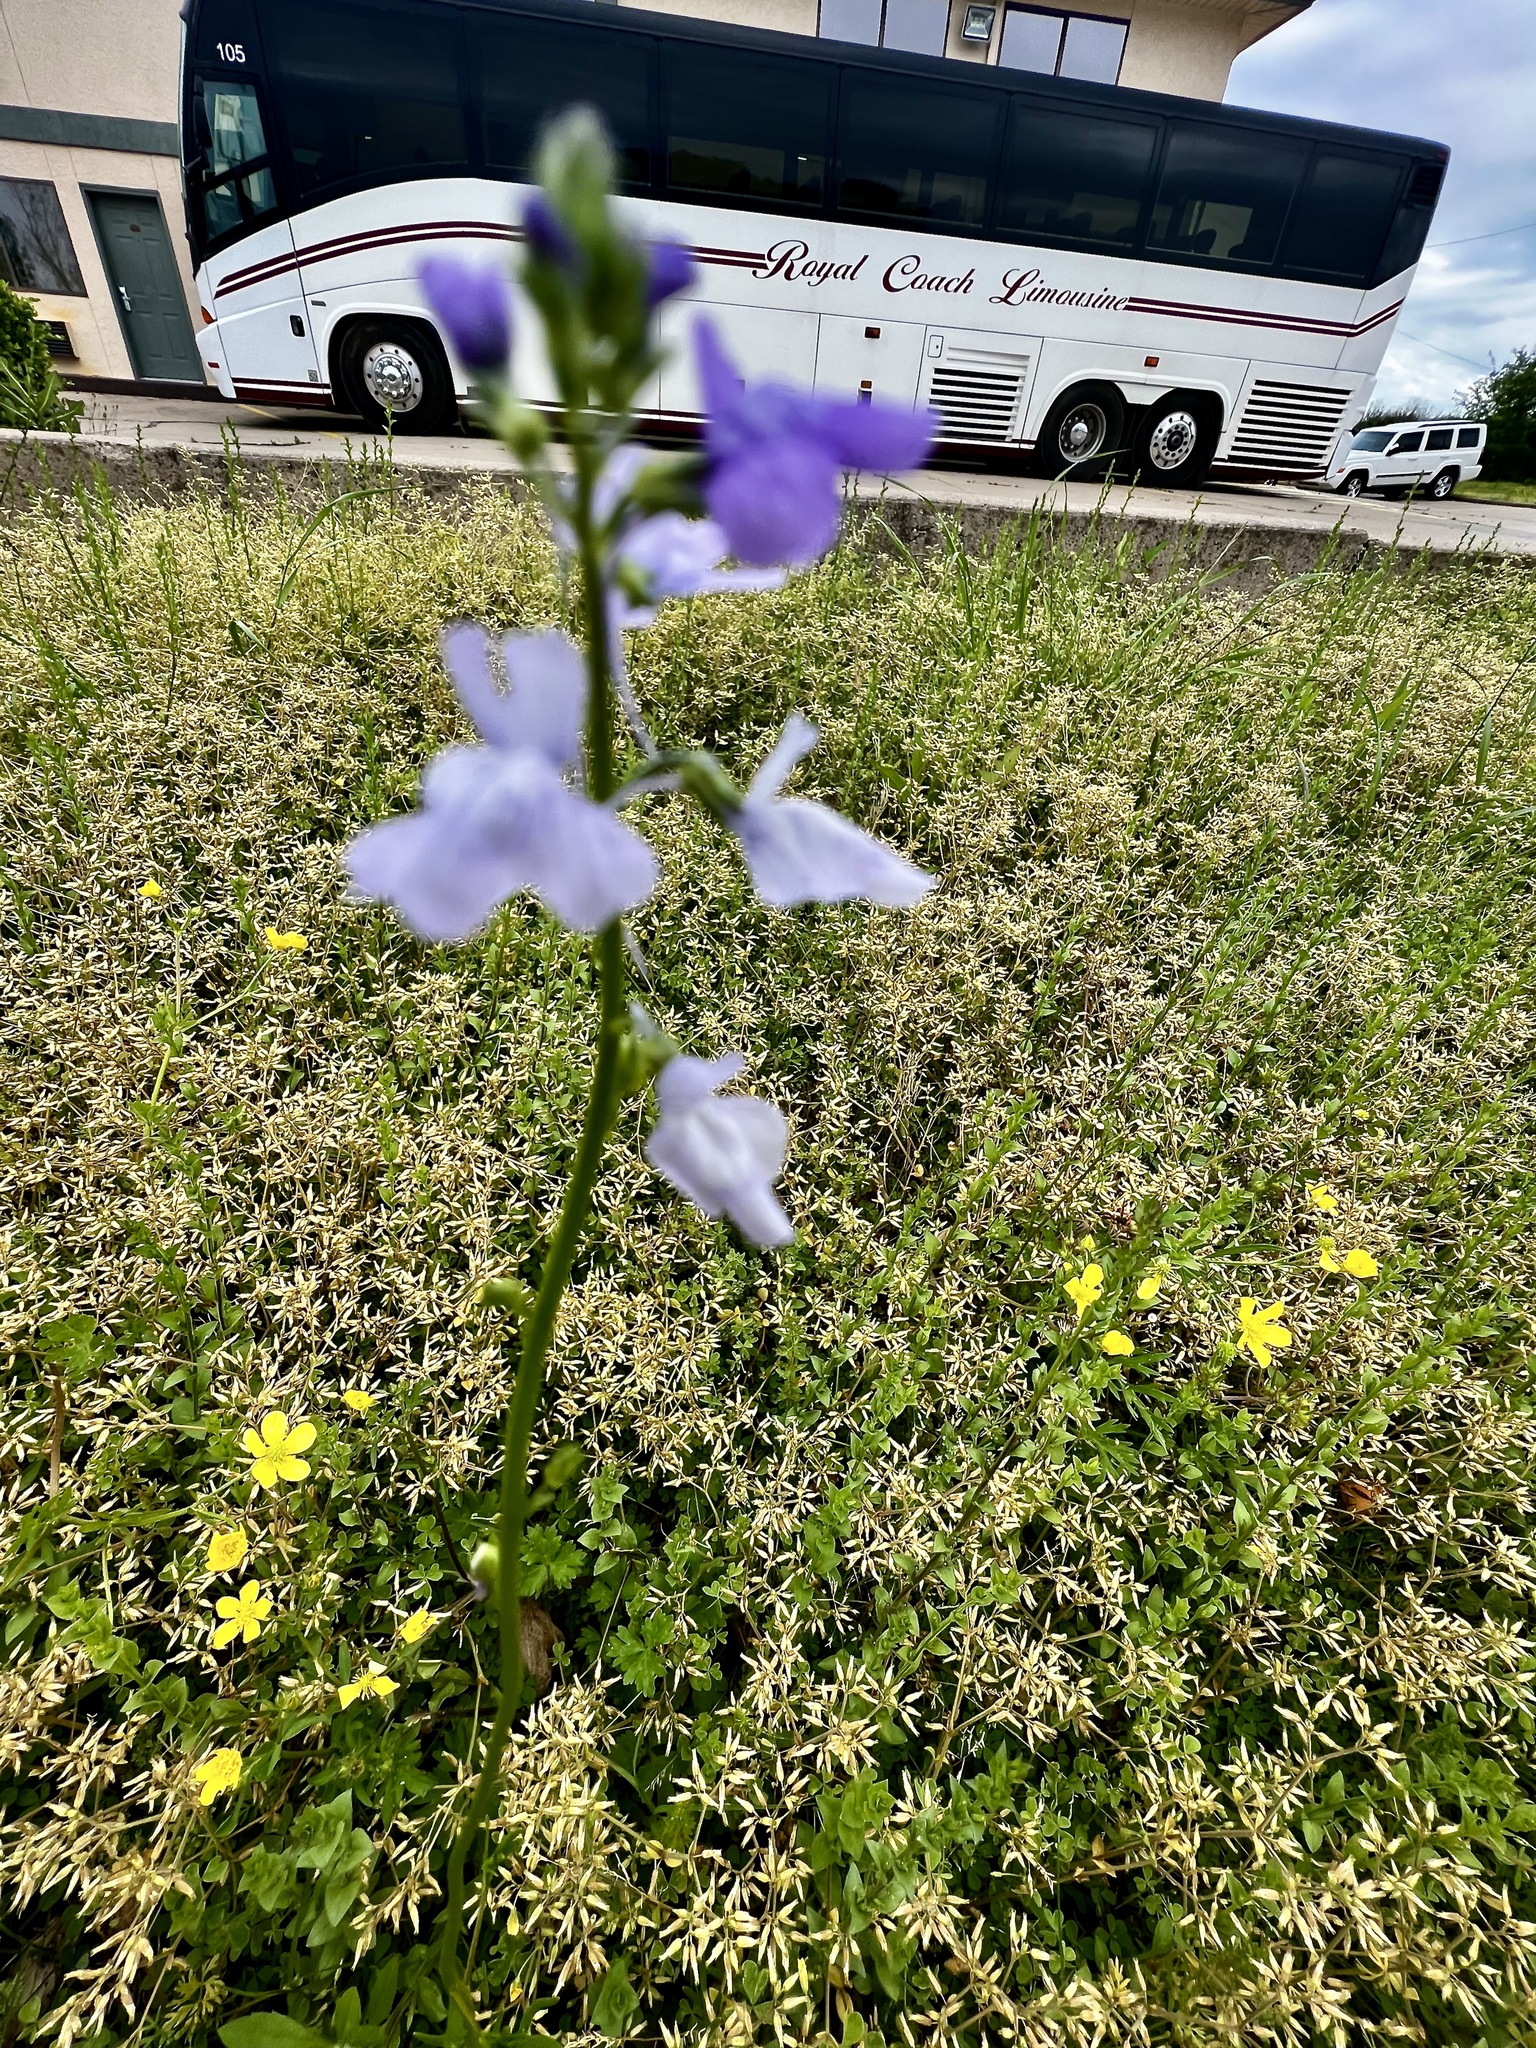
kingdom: Plantae
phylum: Tracheophyta
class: Magnoliopsida
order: Lamiales
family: Plantaginaceae
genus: Nuttallanthus
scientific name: Nuttallanthus texanus
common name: Texas toadflax
